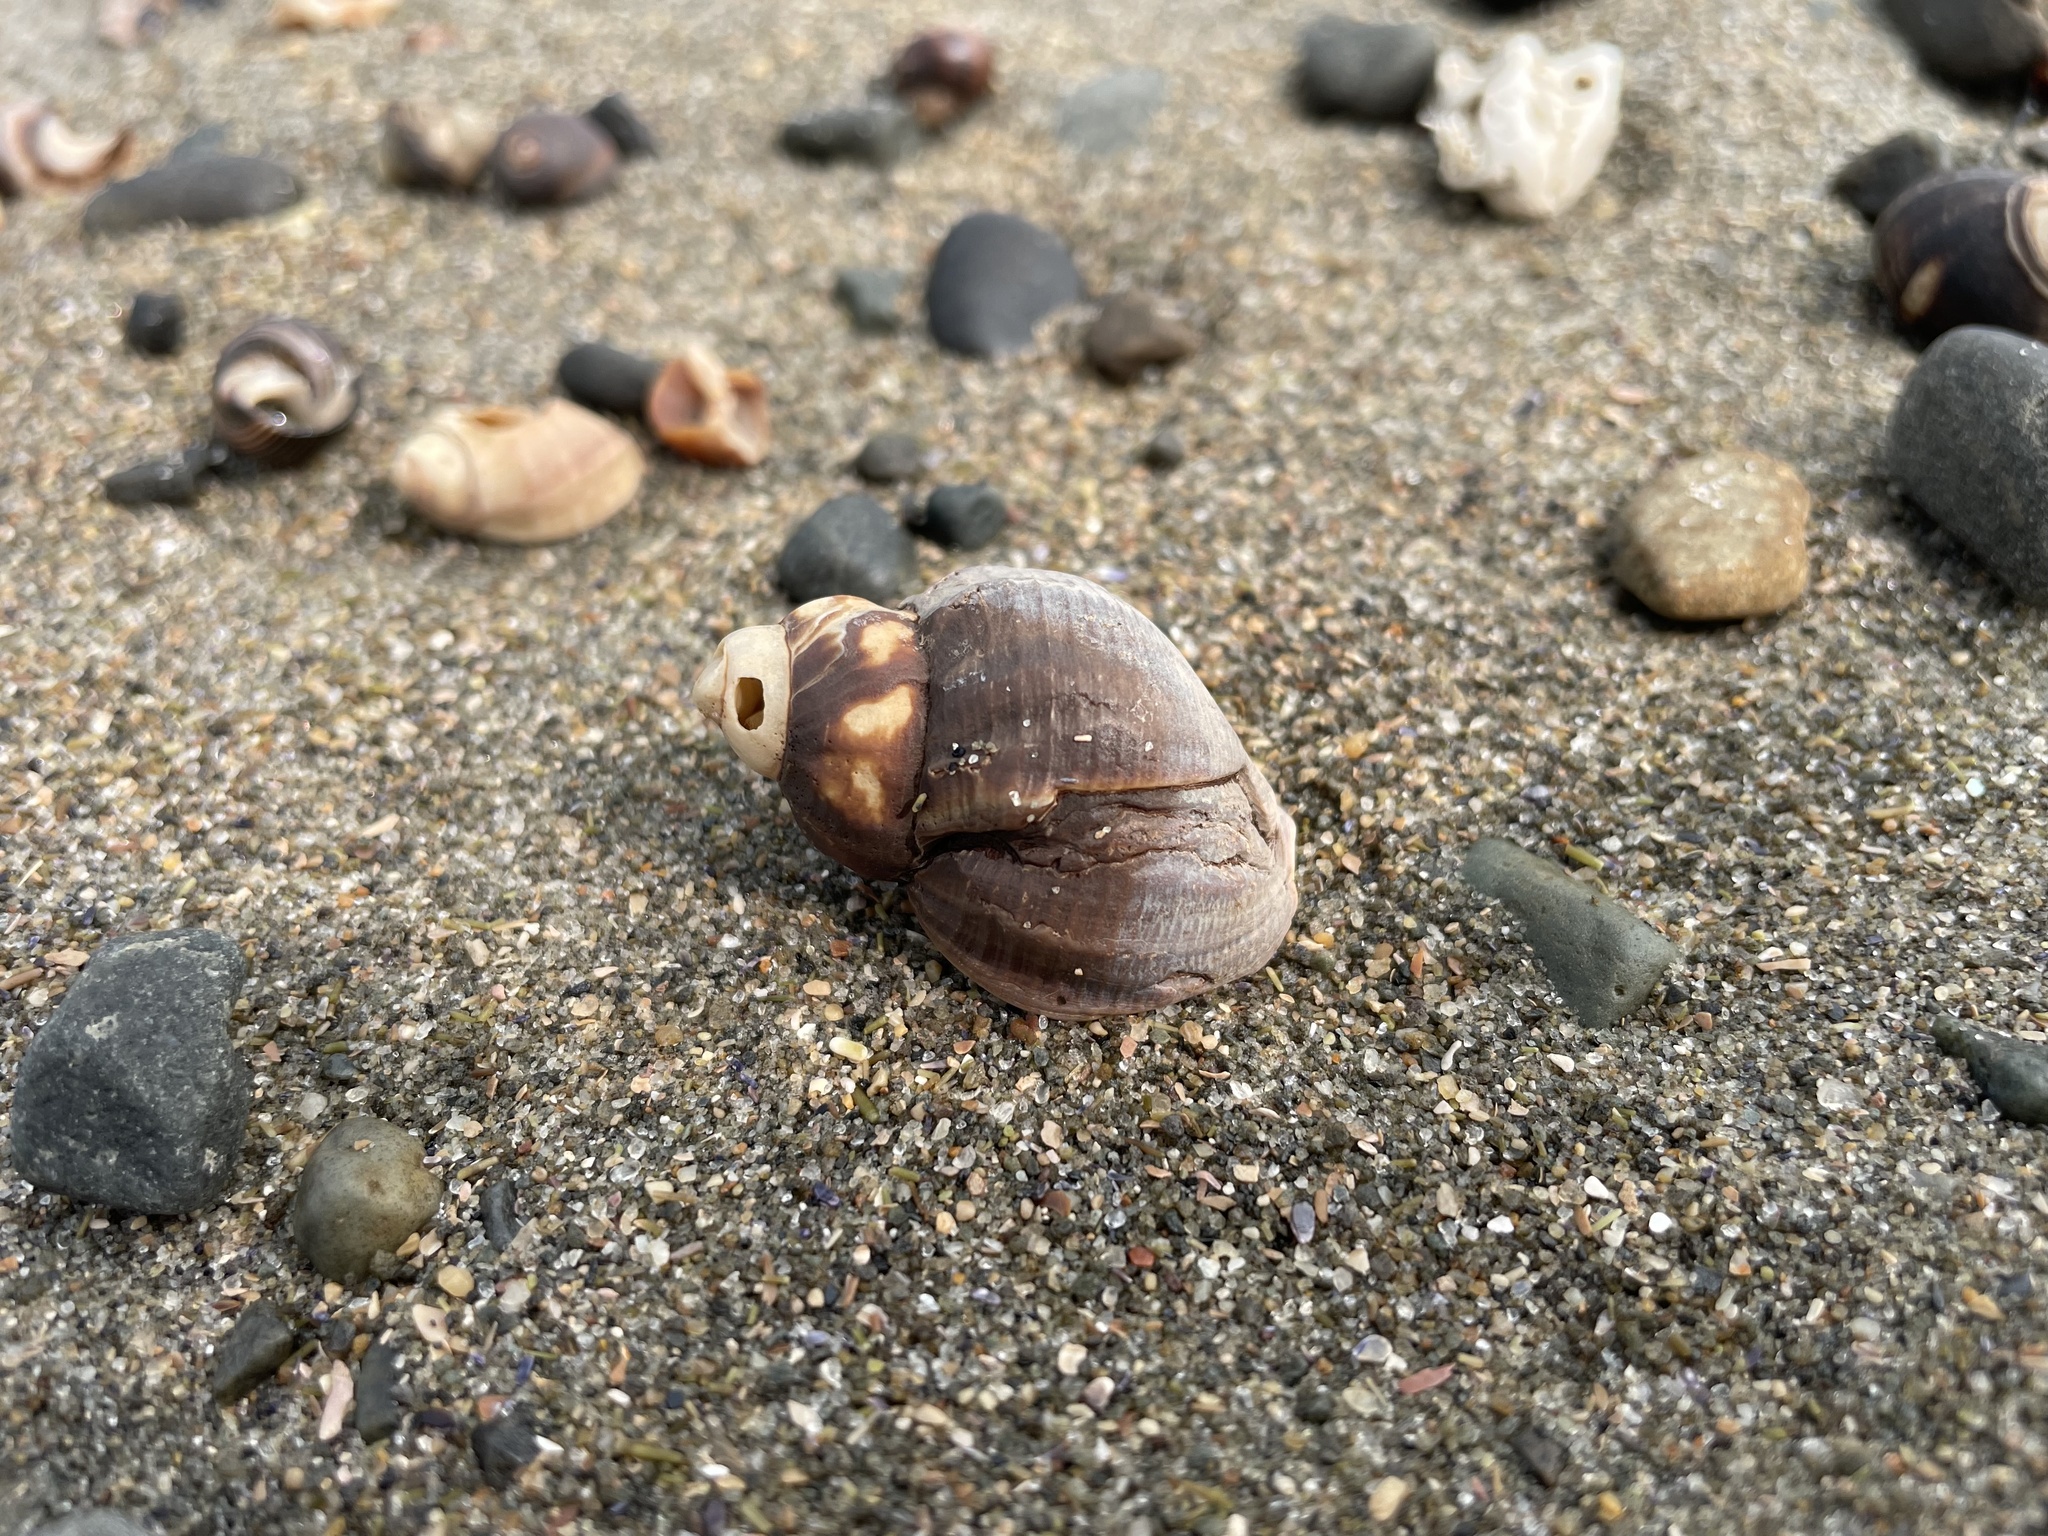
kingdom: Animalia
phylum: Mollusca
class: Gastropoda
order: Neogastropoda
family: Buccinidae
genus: Buccinum
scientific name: Buccinum undatum
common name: Common whelk
